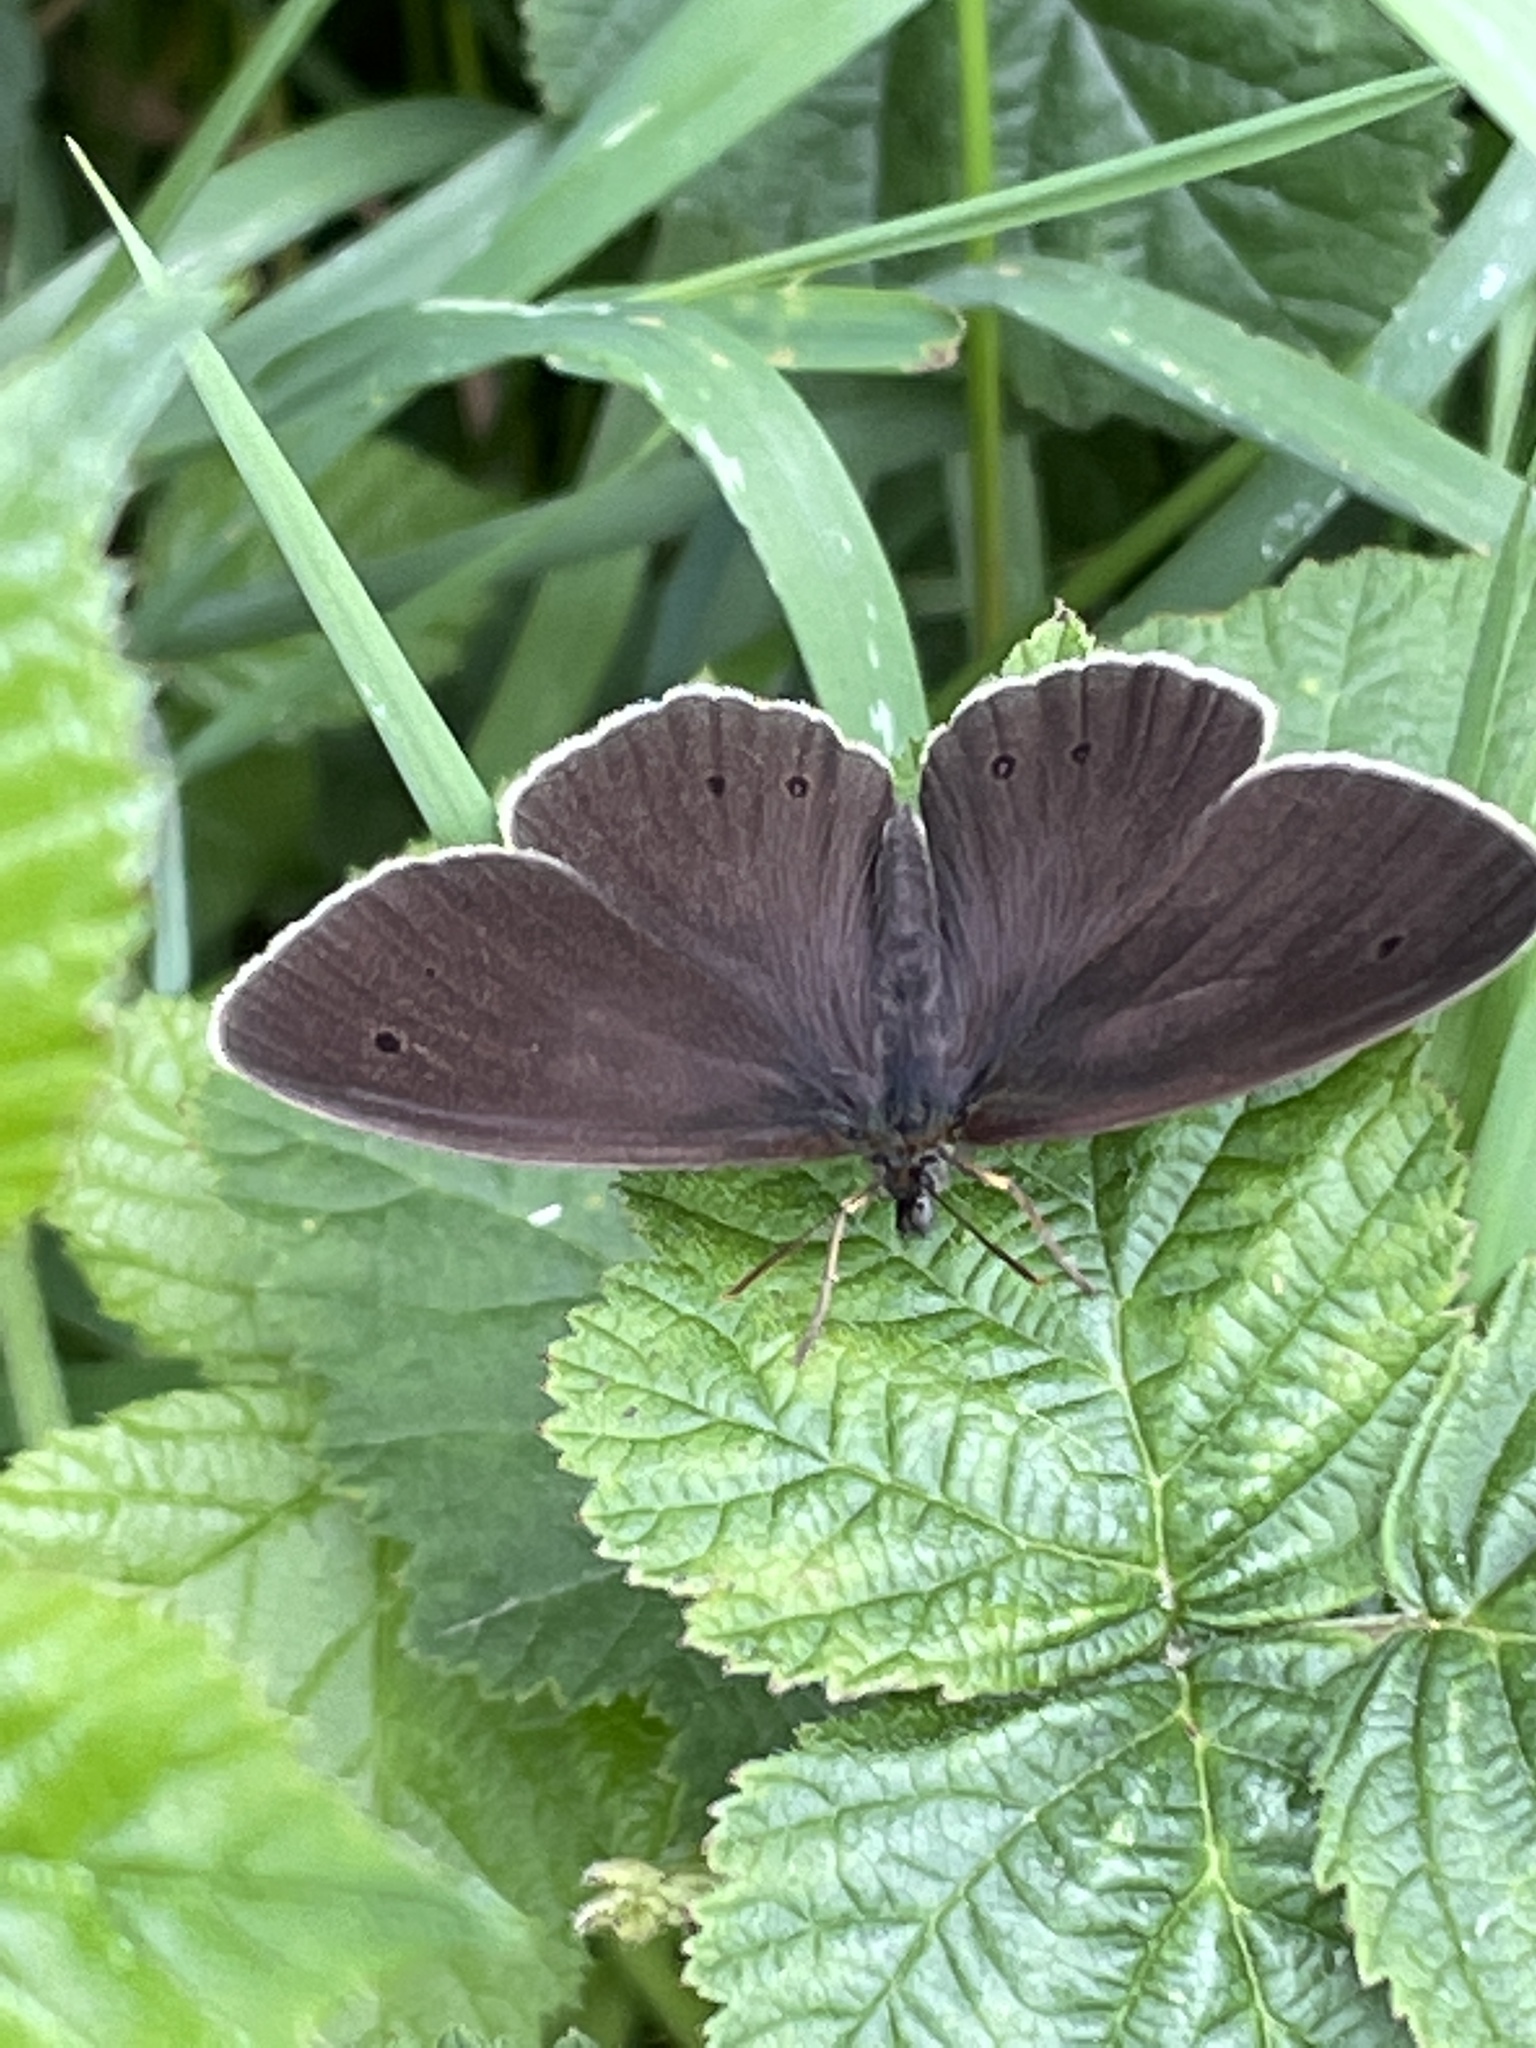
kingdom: Animalia
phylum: Arthropoda
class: Insecta
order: Lepidoptera
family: Nymphalidae
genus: Aphantopus
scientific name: Aphantopus hyperantus
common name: Ringlet
